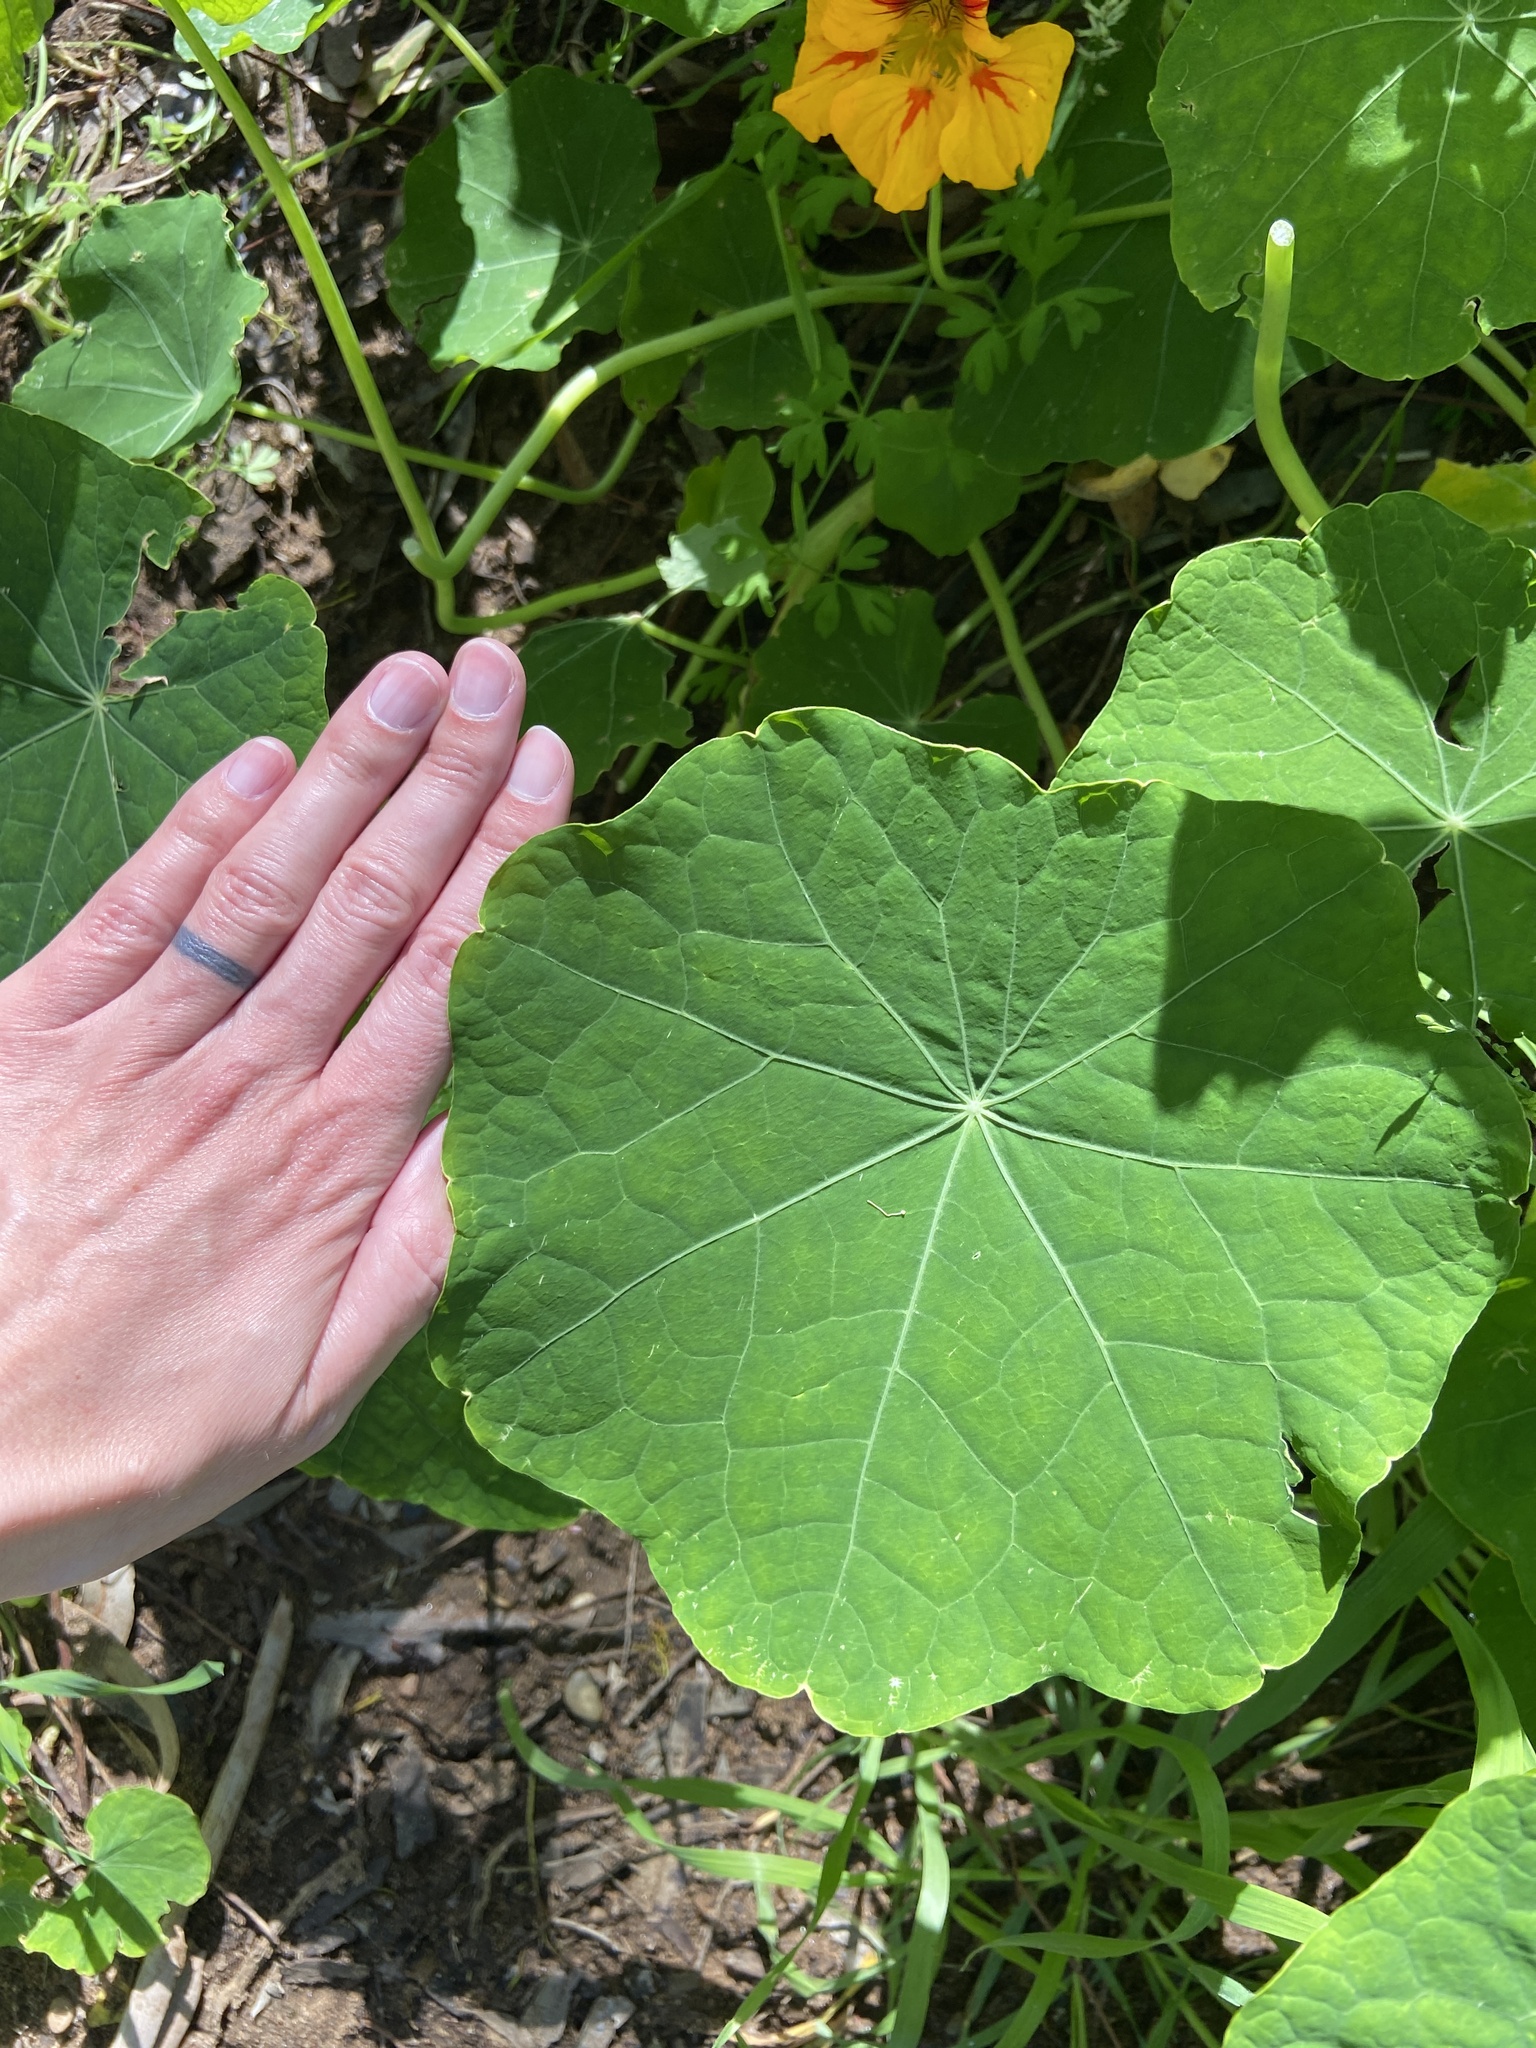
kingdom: Plantae
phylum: Tracheophyta
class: Magnoliopsida
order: Brassicales
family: Tropaeolaceae
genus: Tropaeolum
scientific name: Tropaeolum majus
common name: Nasturtium
